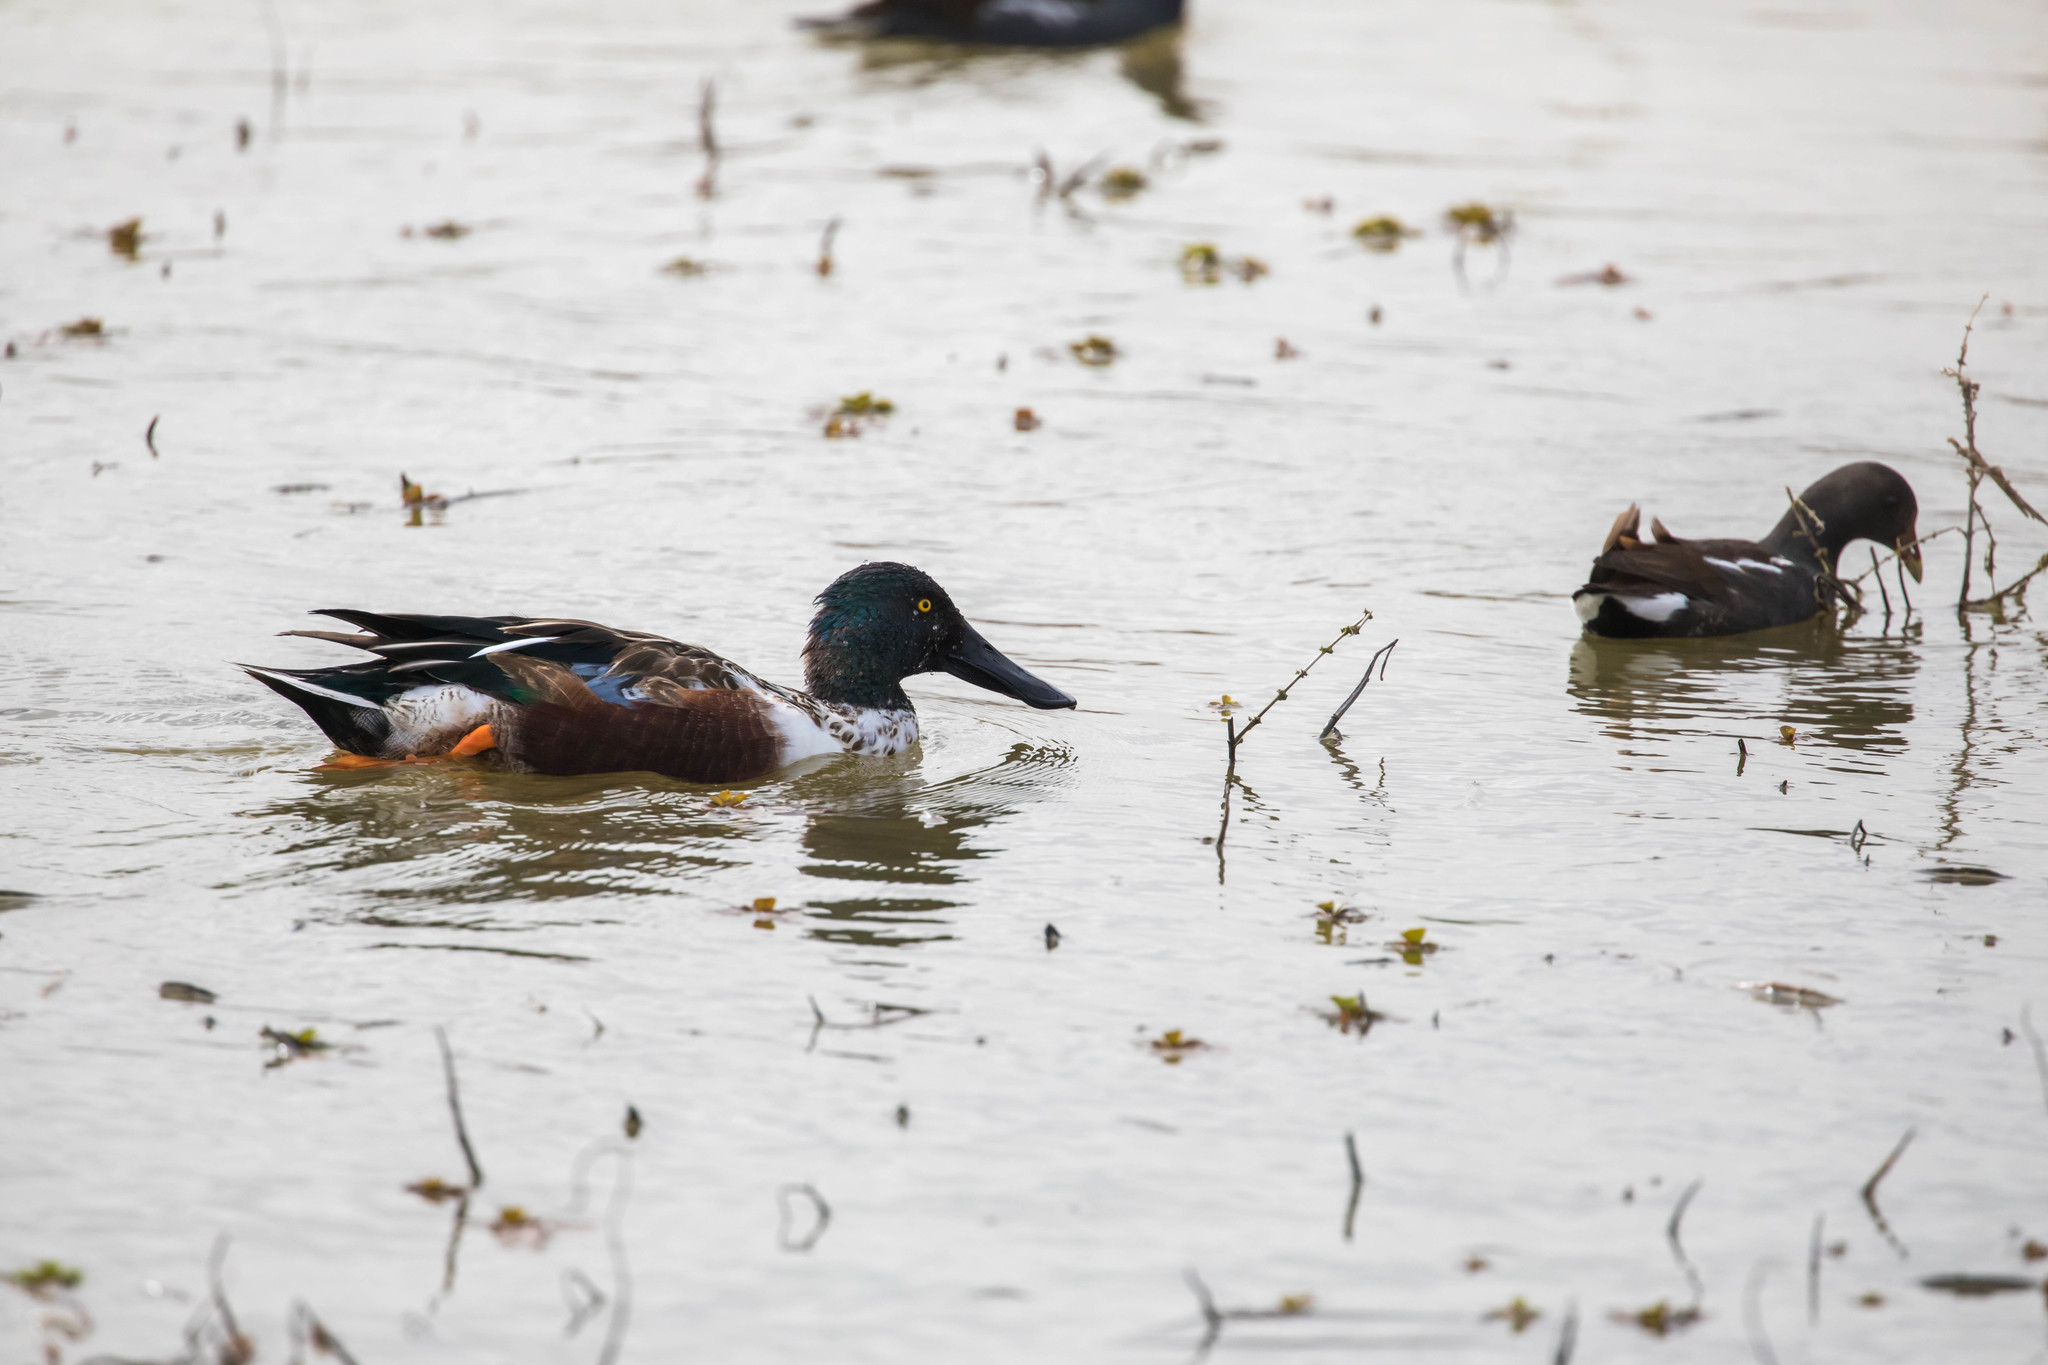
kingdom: Animalia
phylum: Chordata
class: Aves
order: Anseriformes
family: Anatidae
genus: Spatula
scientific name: Spatula clypeata
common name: Northern shoveler
